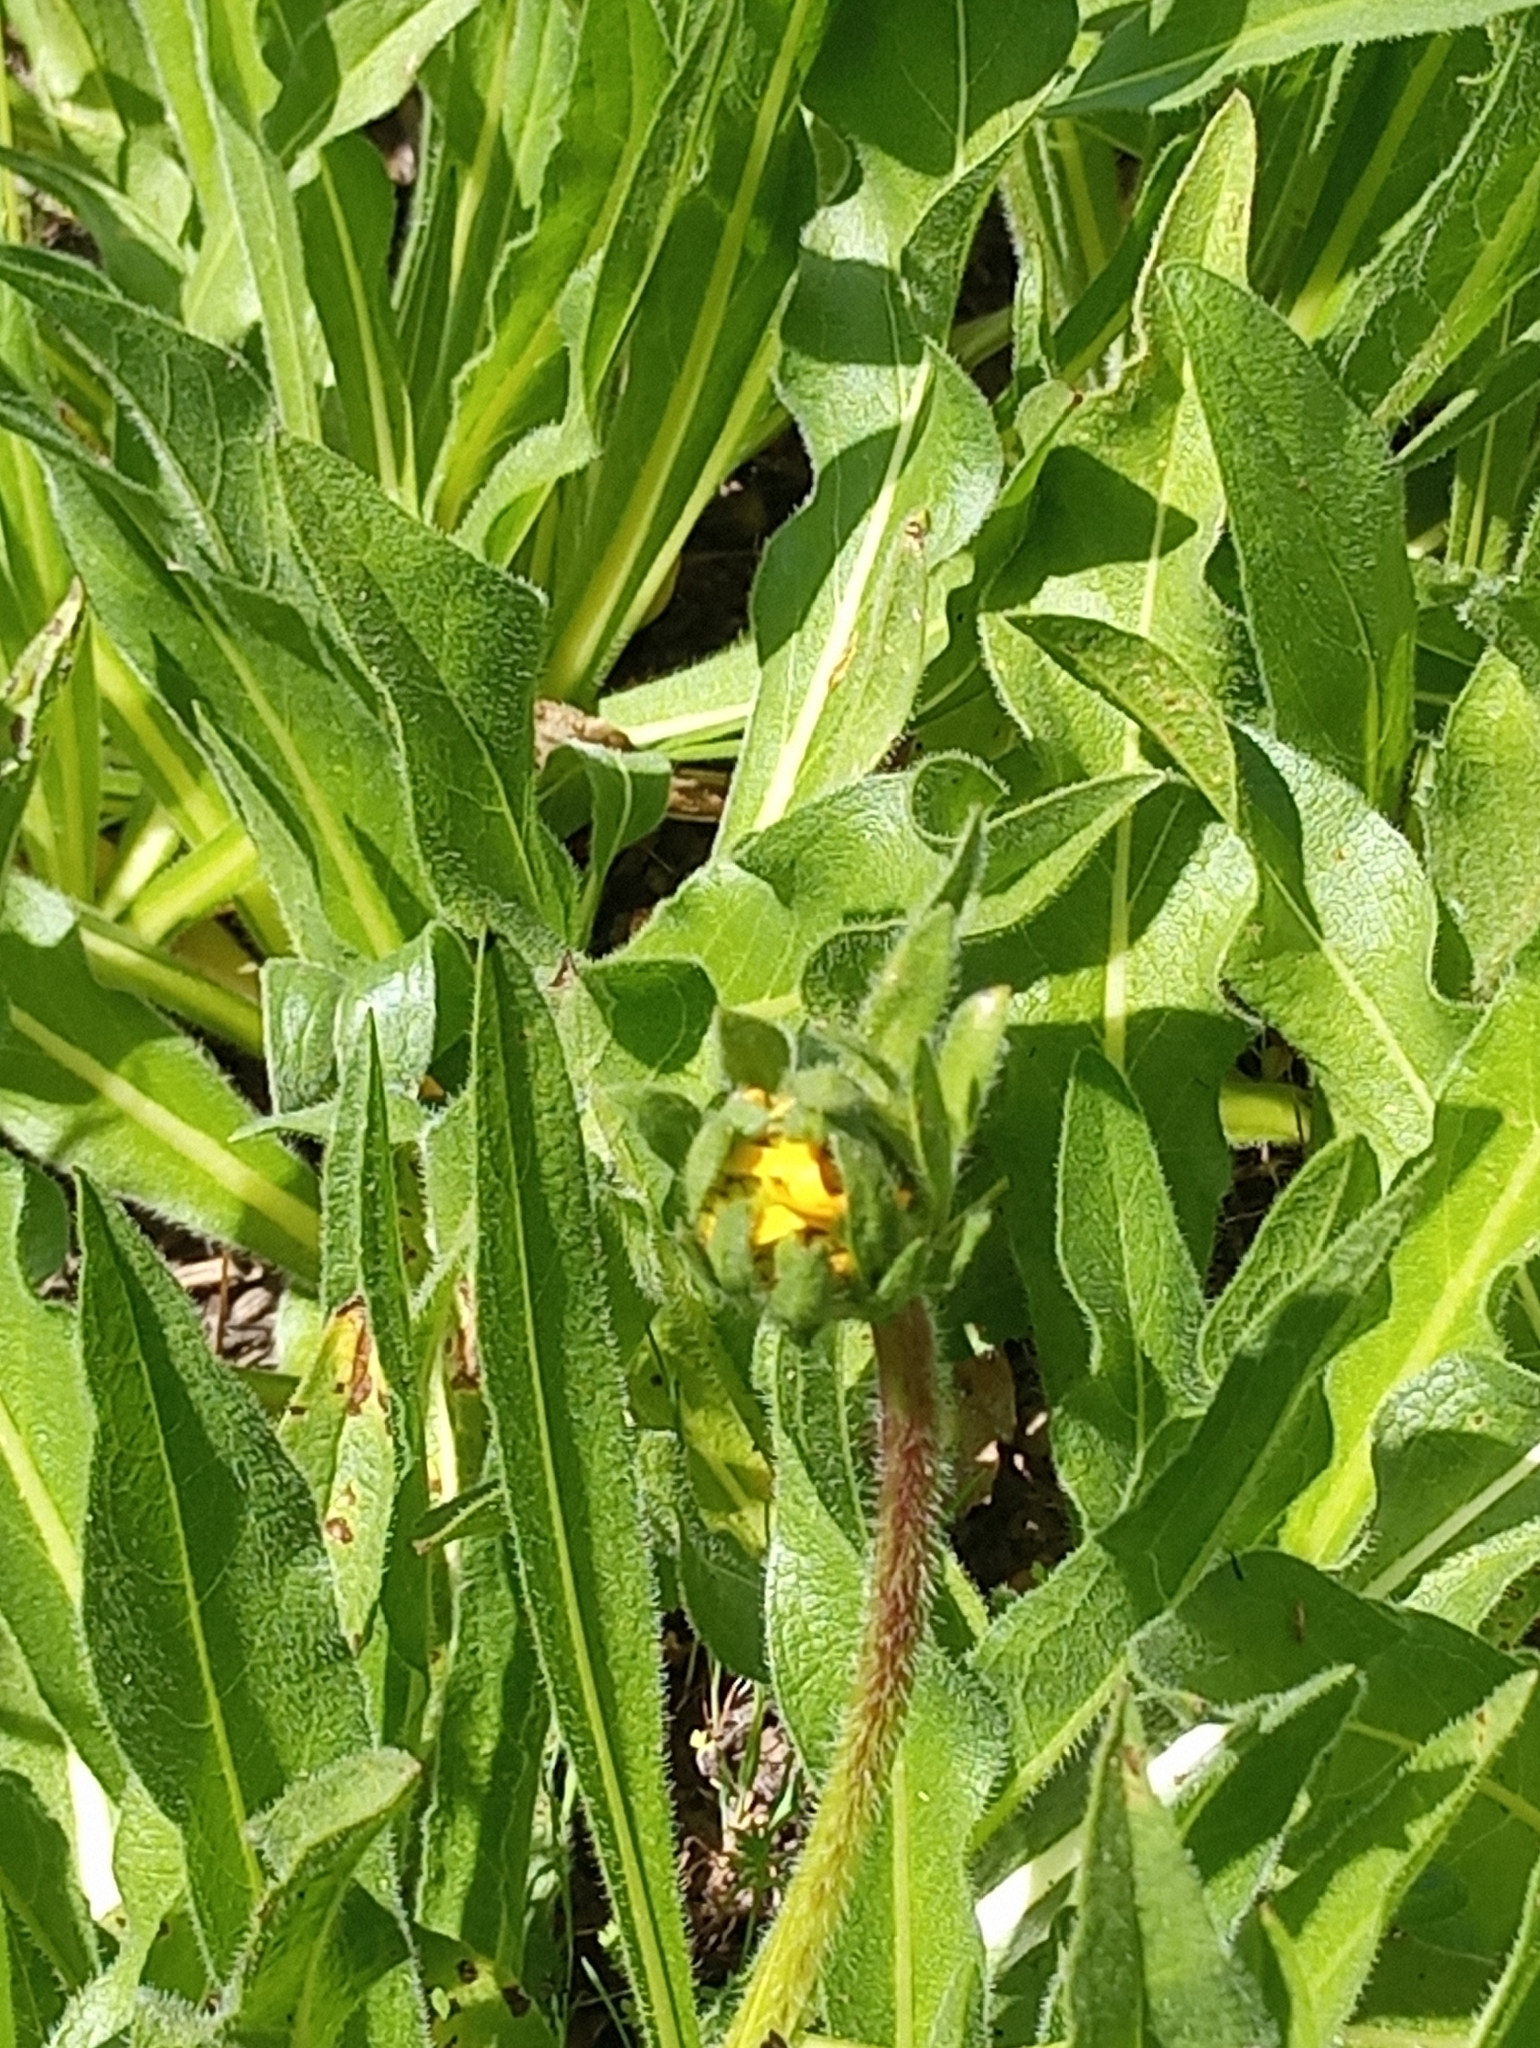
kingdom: Plantae
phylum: Tracheophyta
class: Magnoliopsida
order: Asterales
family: Asteraceae
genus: Wyethia
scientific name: Wyethia angustifolia
